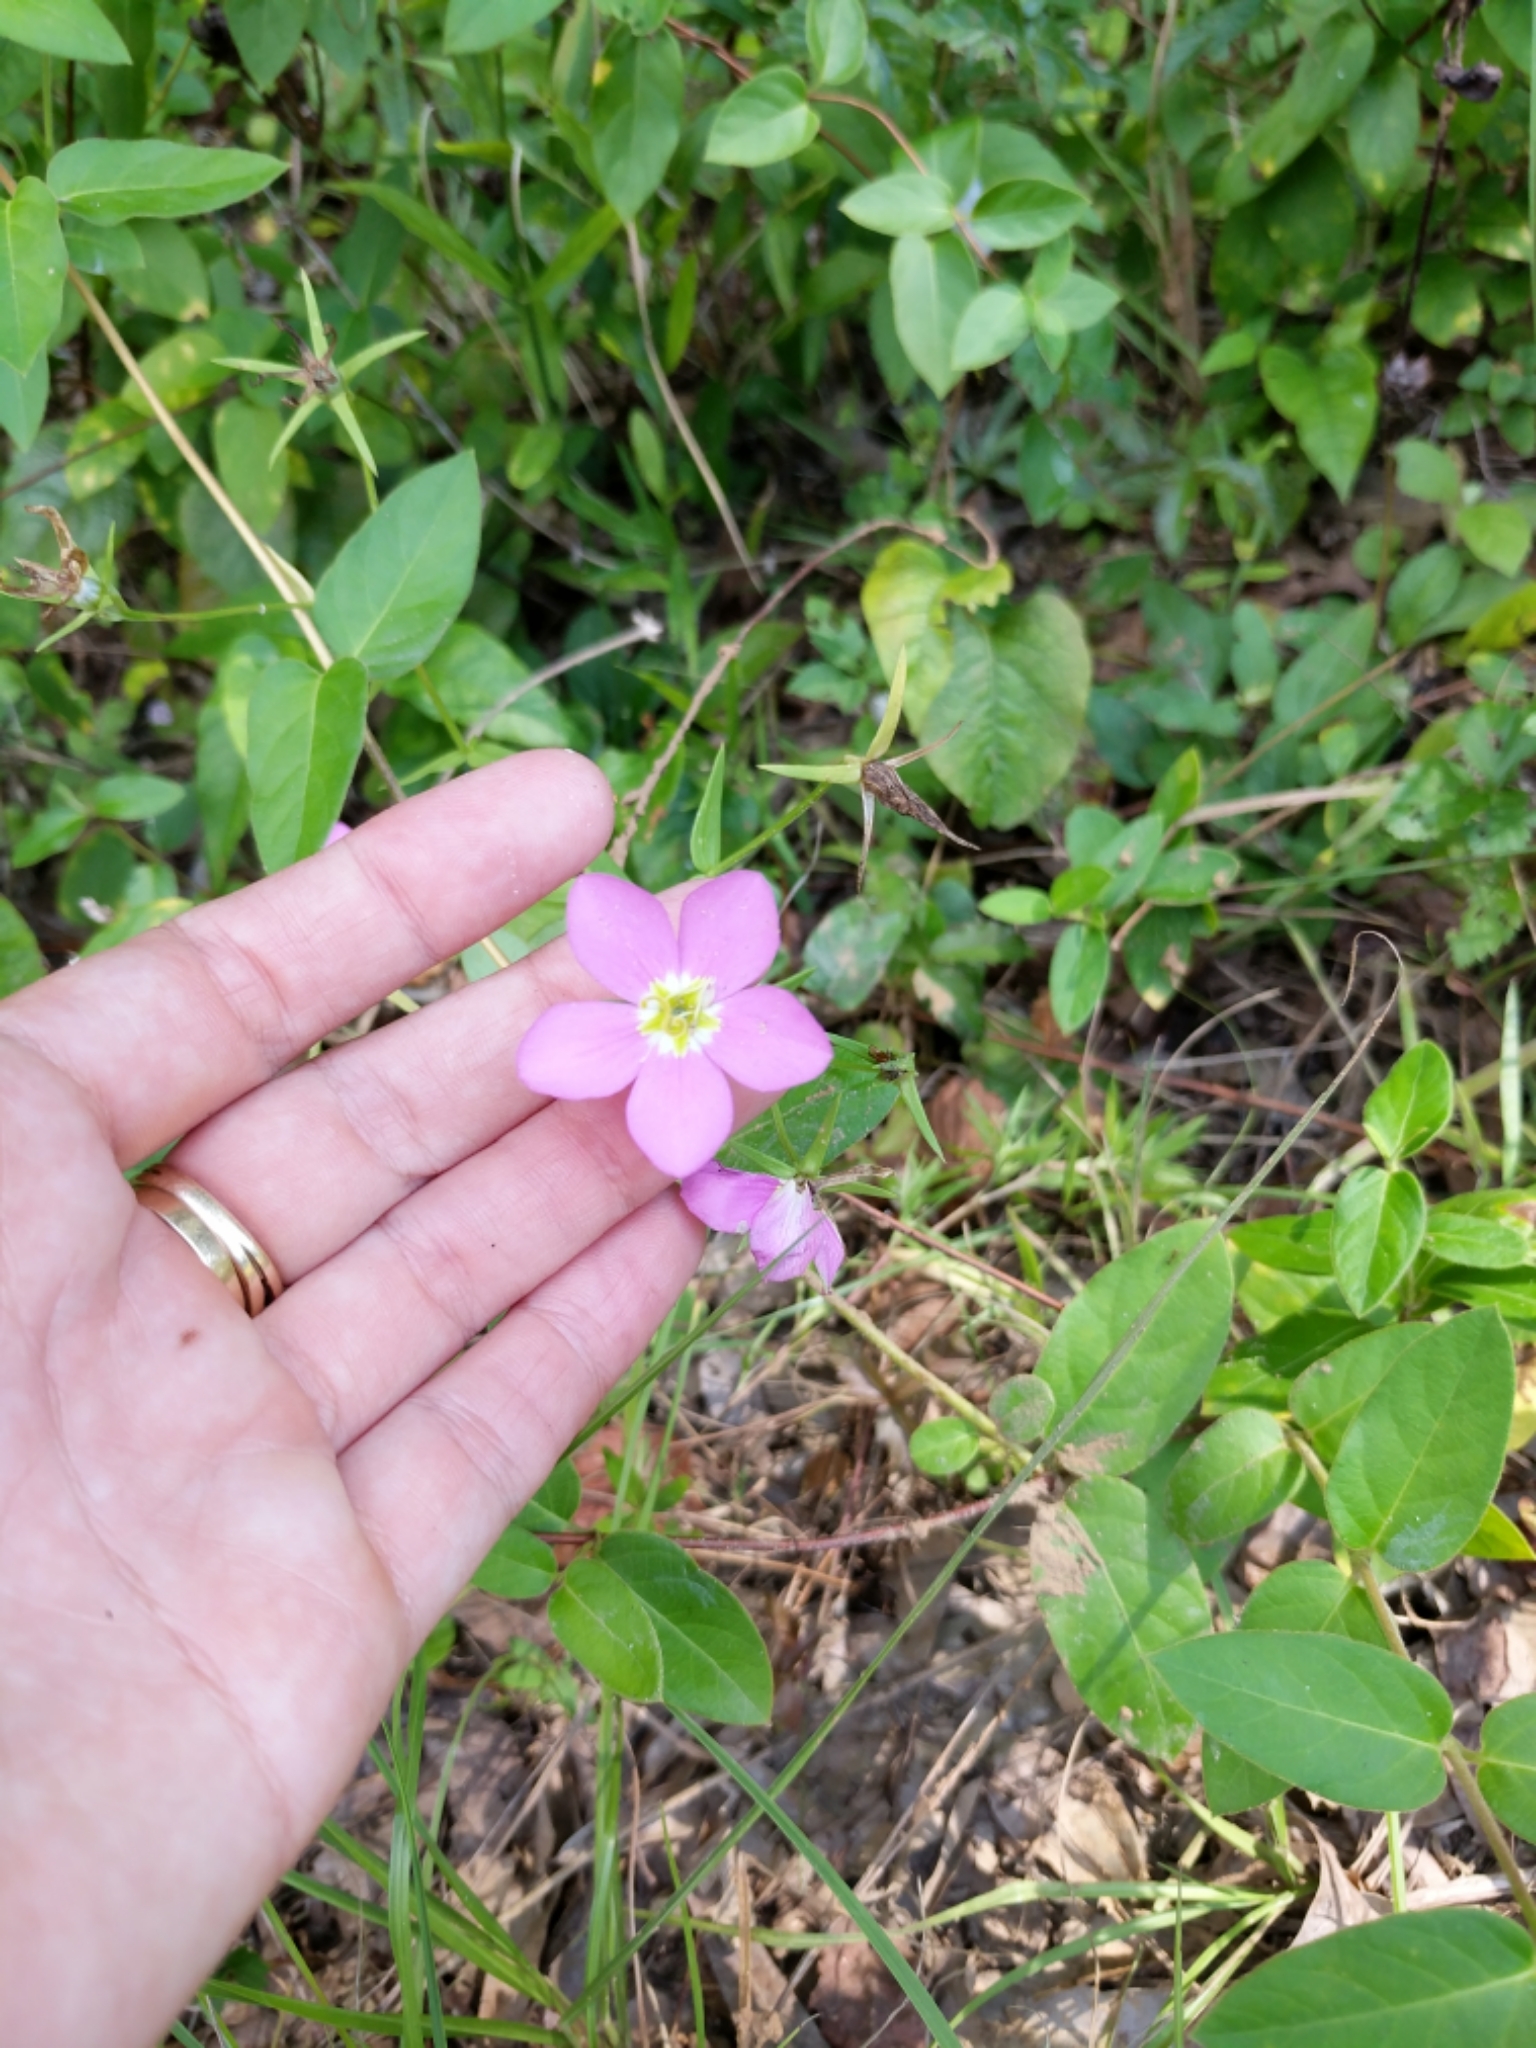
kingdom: Plantae
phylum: Tracheophyta
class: Magnoliopsida
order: Gentianales
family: Gentianaceae
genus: Sabatia
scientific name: Sabatia campestris
